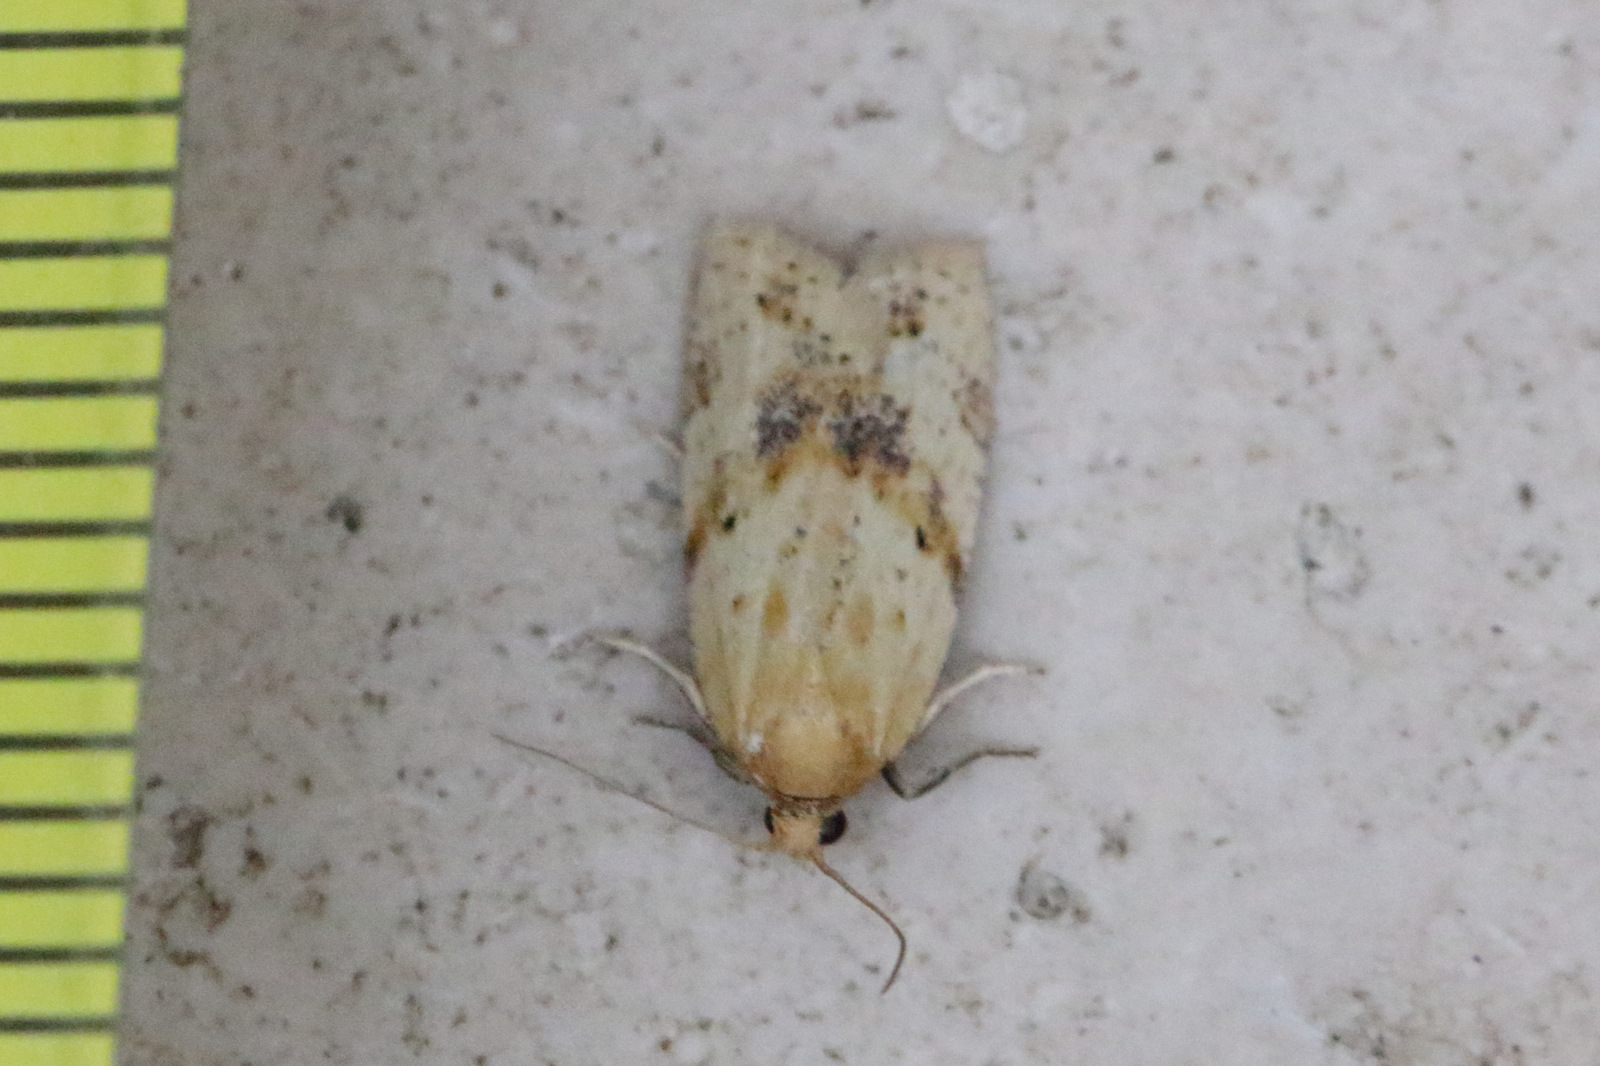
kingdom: Animalia
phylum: Arthropoda
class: Insecta
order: Lepidoptera
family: Tortricidae
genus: Clepsis
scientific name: Clepsis
